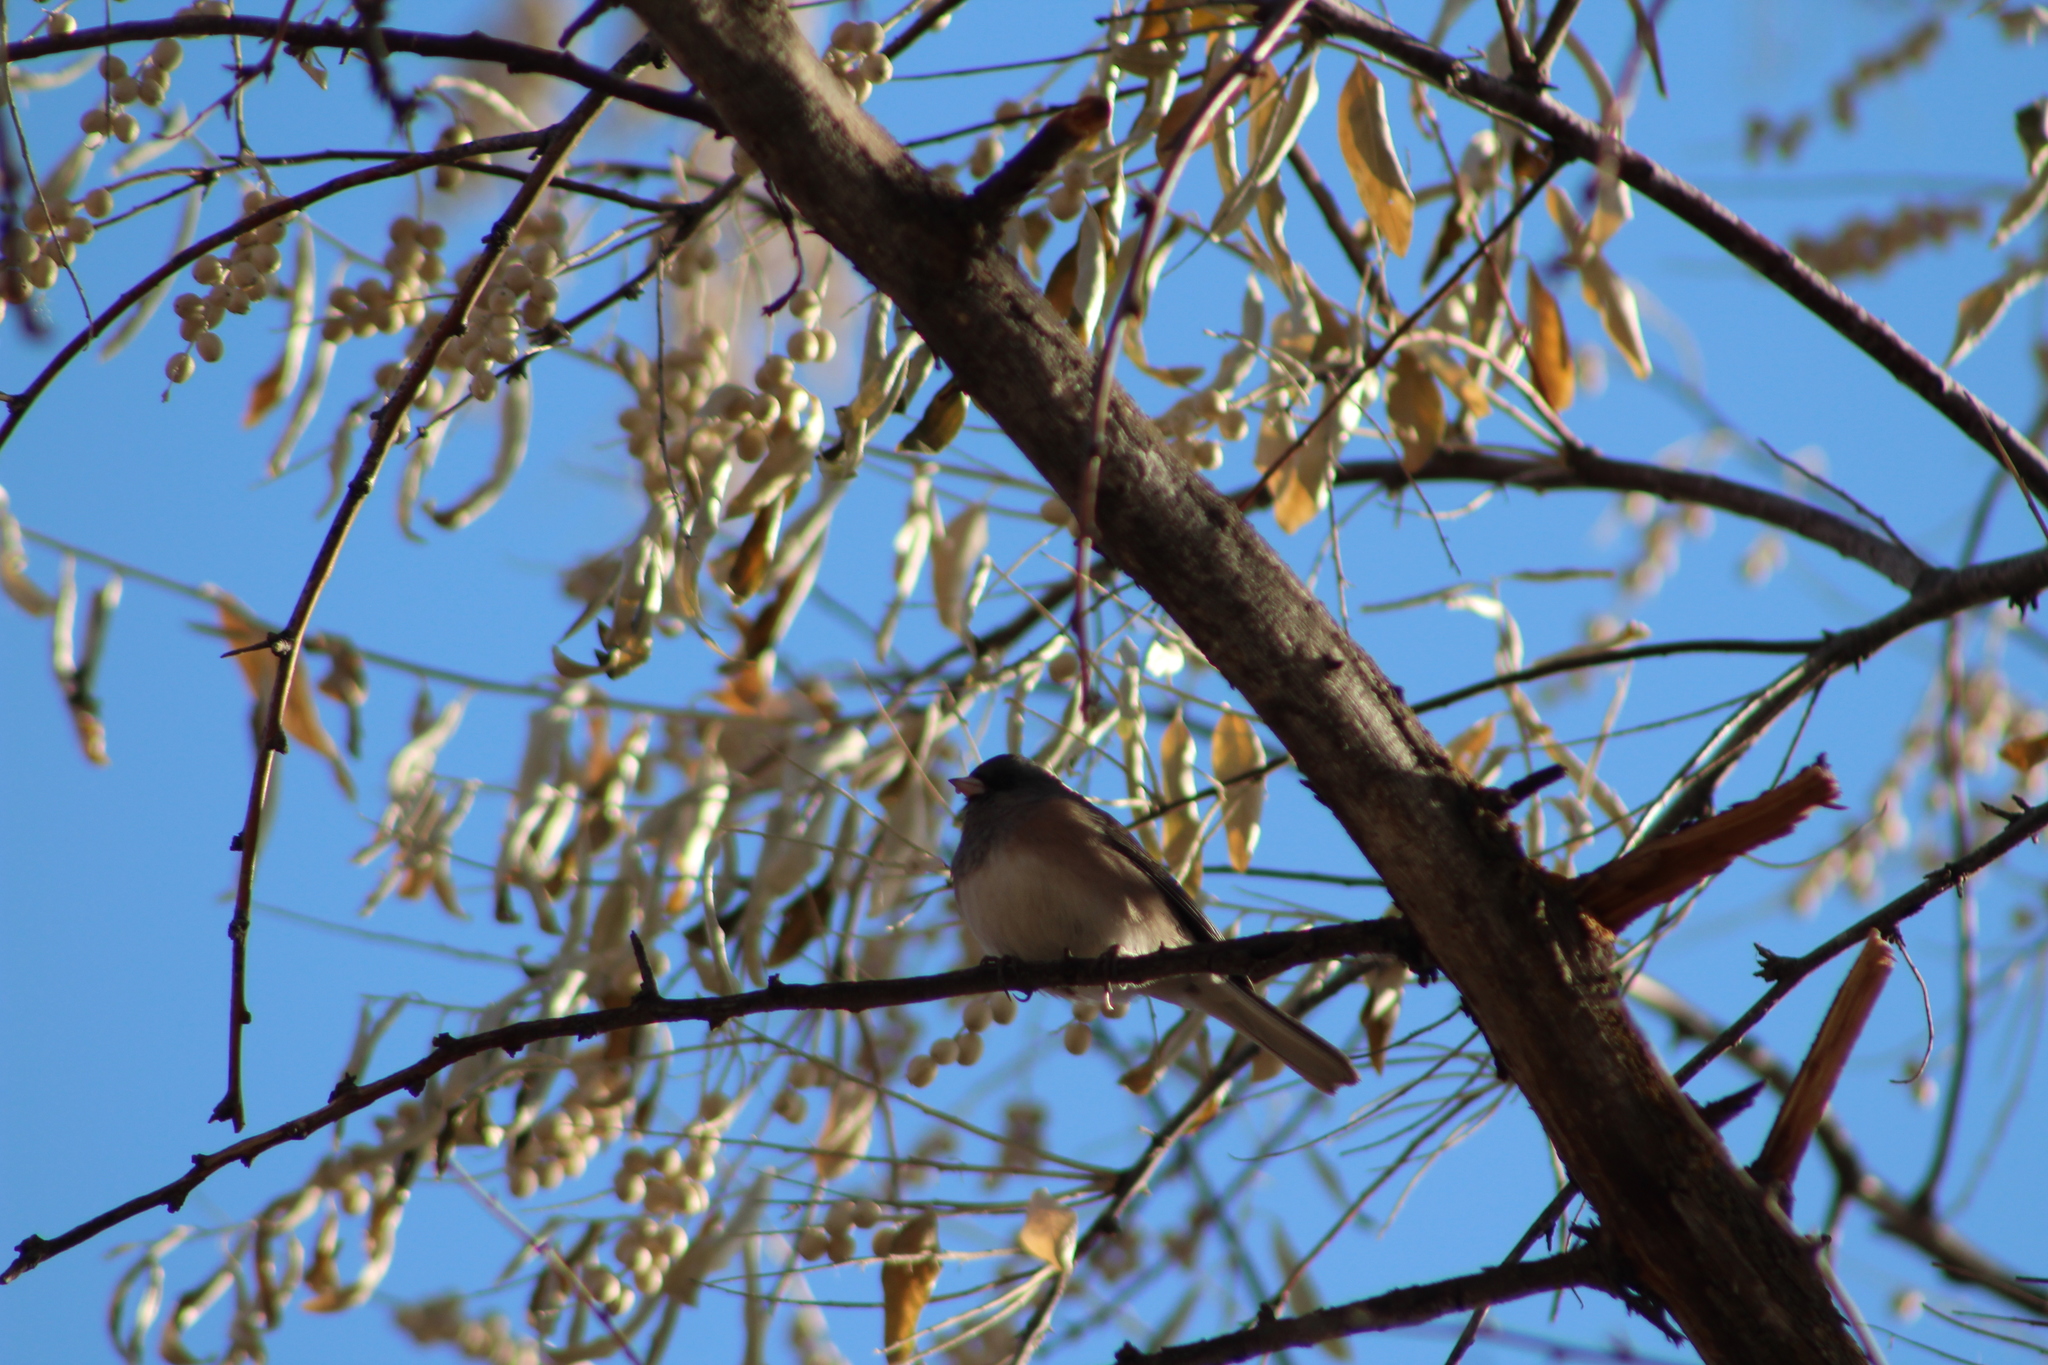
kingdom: Animalia
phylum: Chordata
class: Aves
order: Passeriformes
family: Passerellidae
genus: Junco
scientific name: Junco hyemalis
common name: Dark-eyed junco
